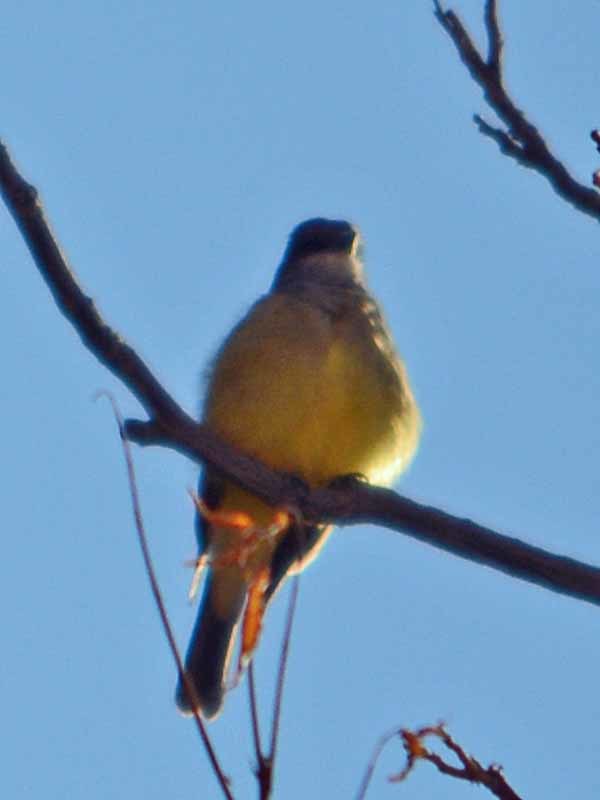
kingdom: Animalia
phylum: Chordata
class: Aves
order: Passeriformes
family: Tyrannidae
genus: Tyrannus
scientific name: Tyrannus vociferans
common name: Cassin's kingbird
